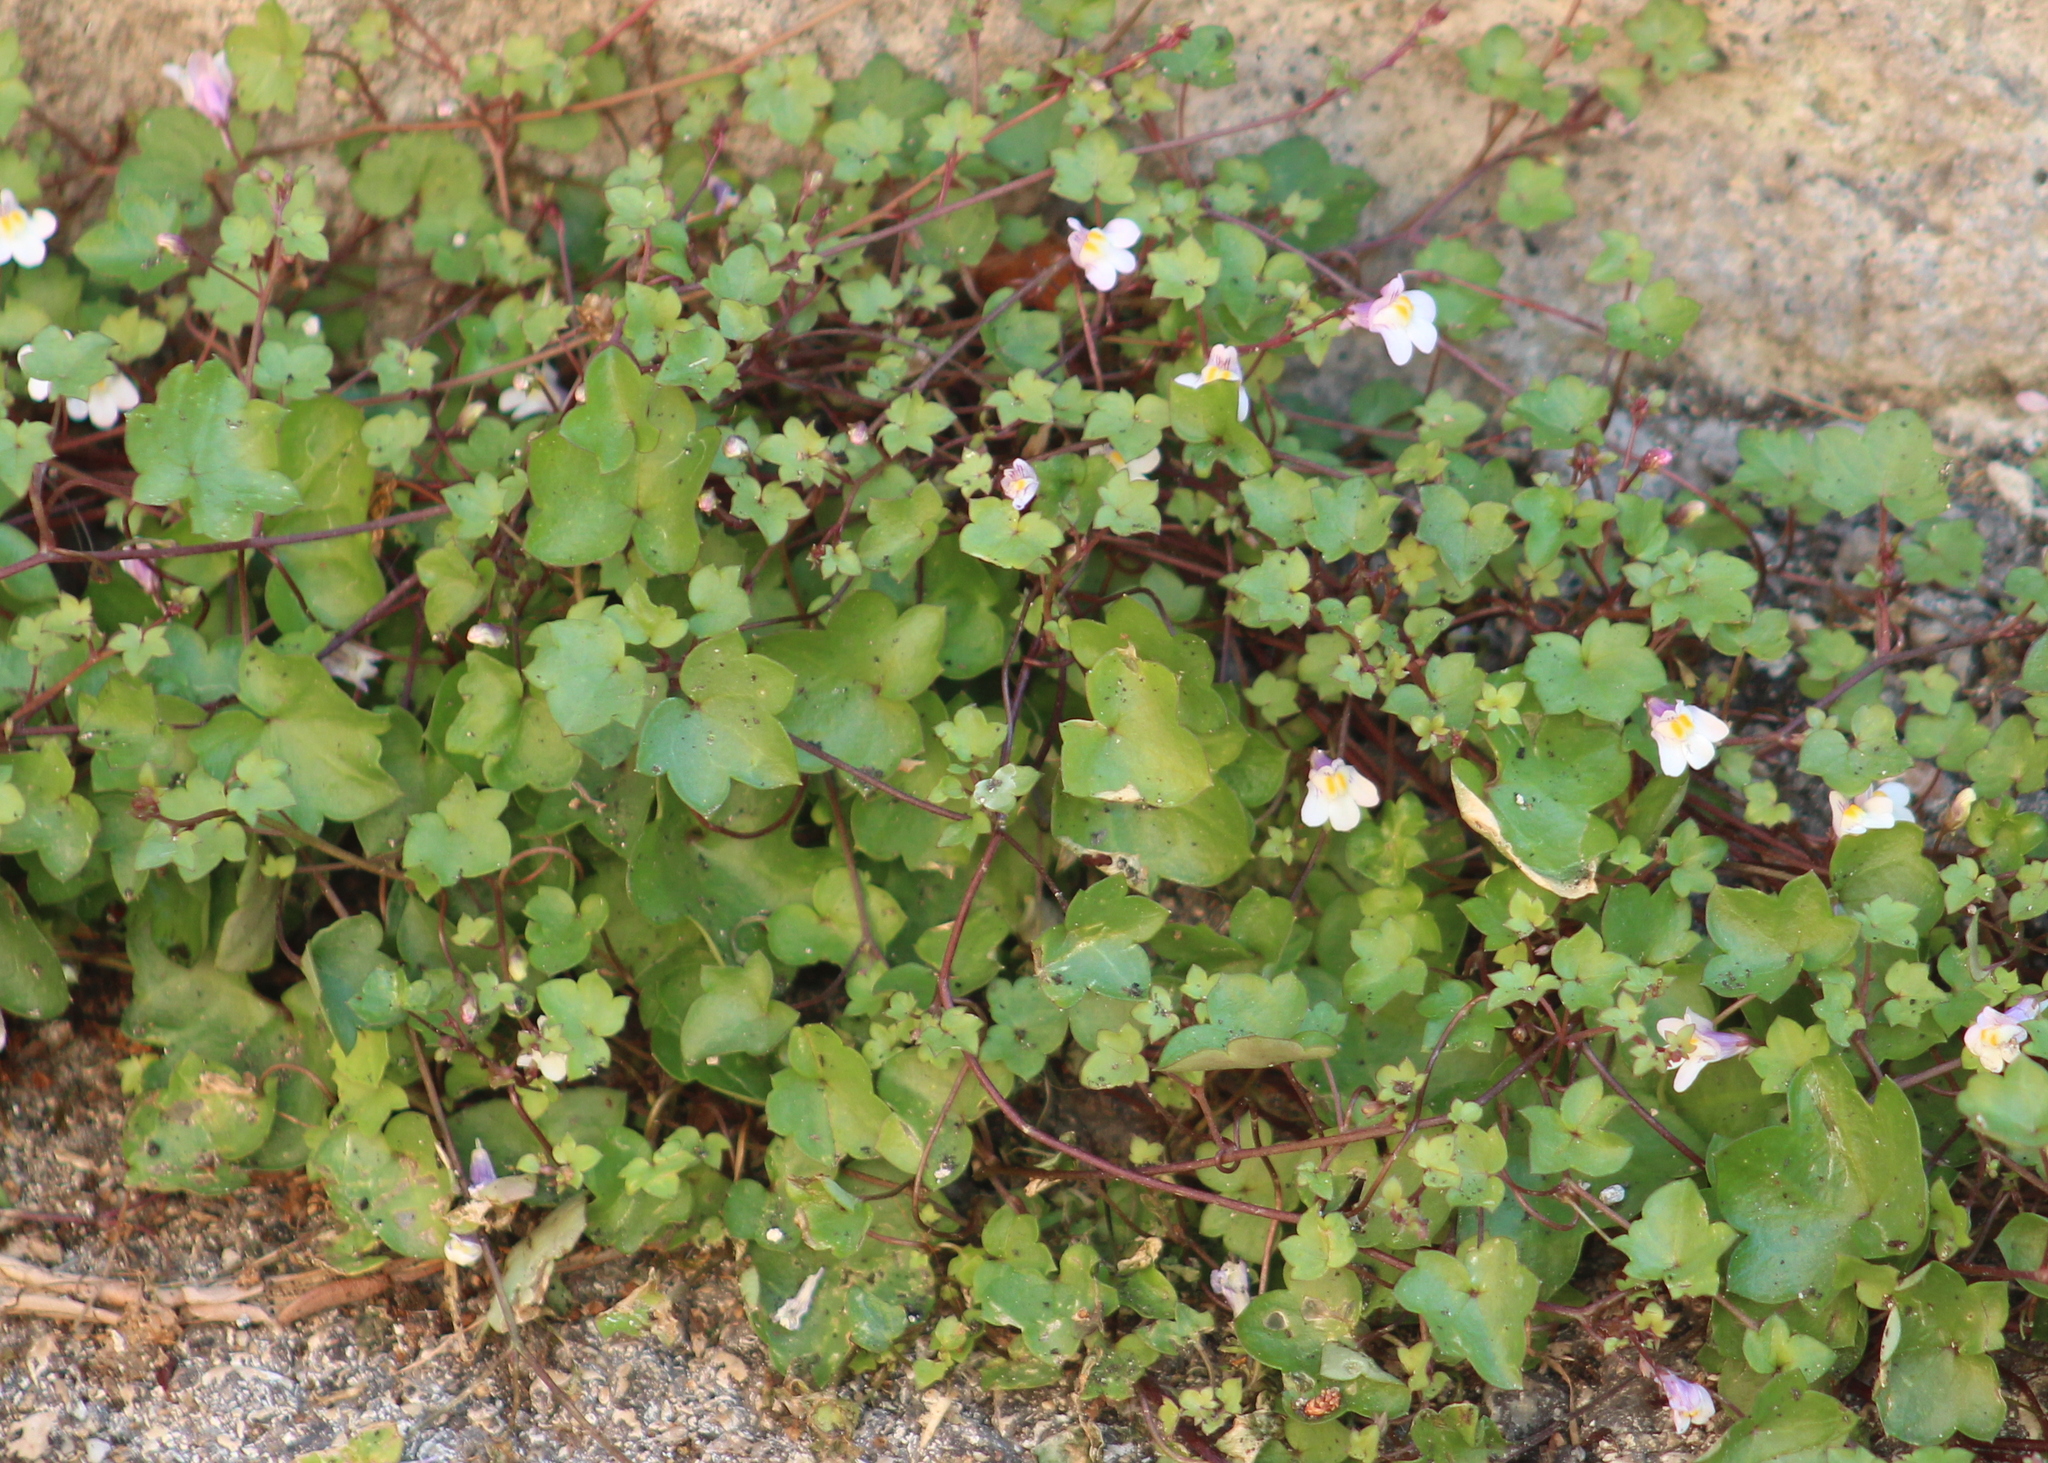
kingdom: Plantae
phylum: Tracheophyta
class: Magnoliopsida
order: Lamiales
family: Plantaginaceae
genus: Cymbalaria
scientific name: Cymbalaria muralis
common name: Ivy-leaved toadflax
